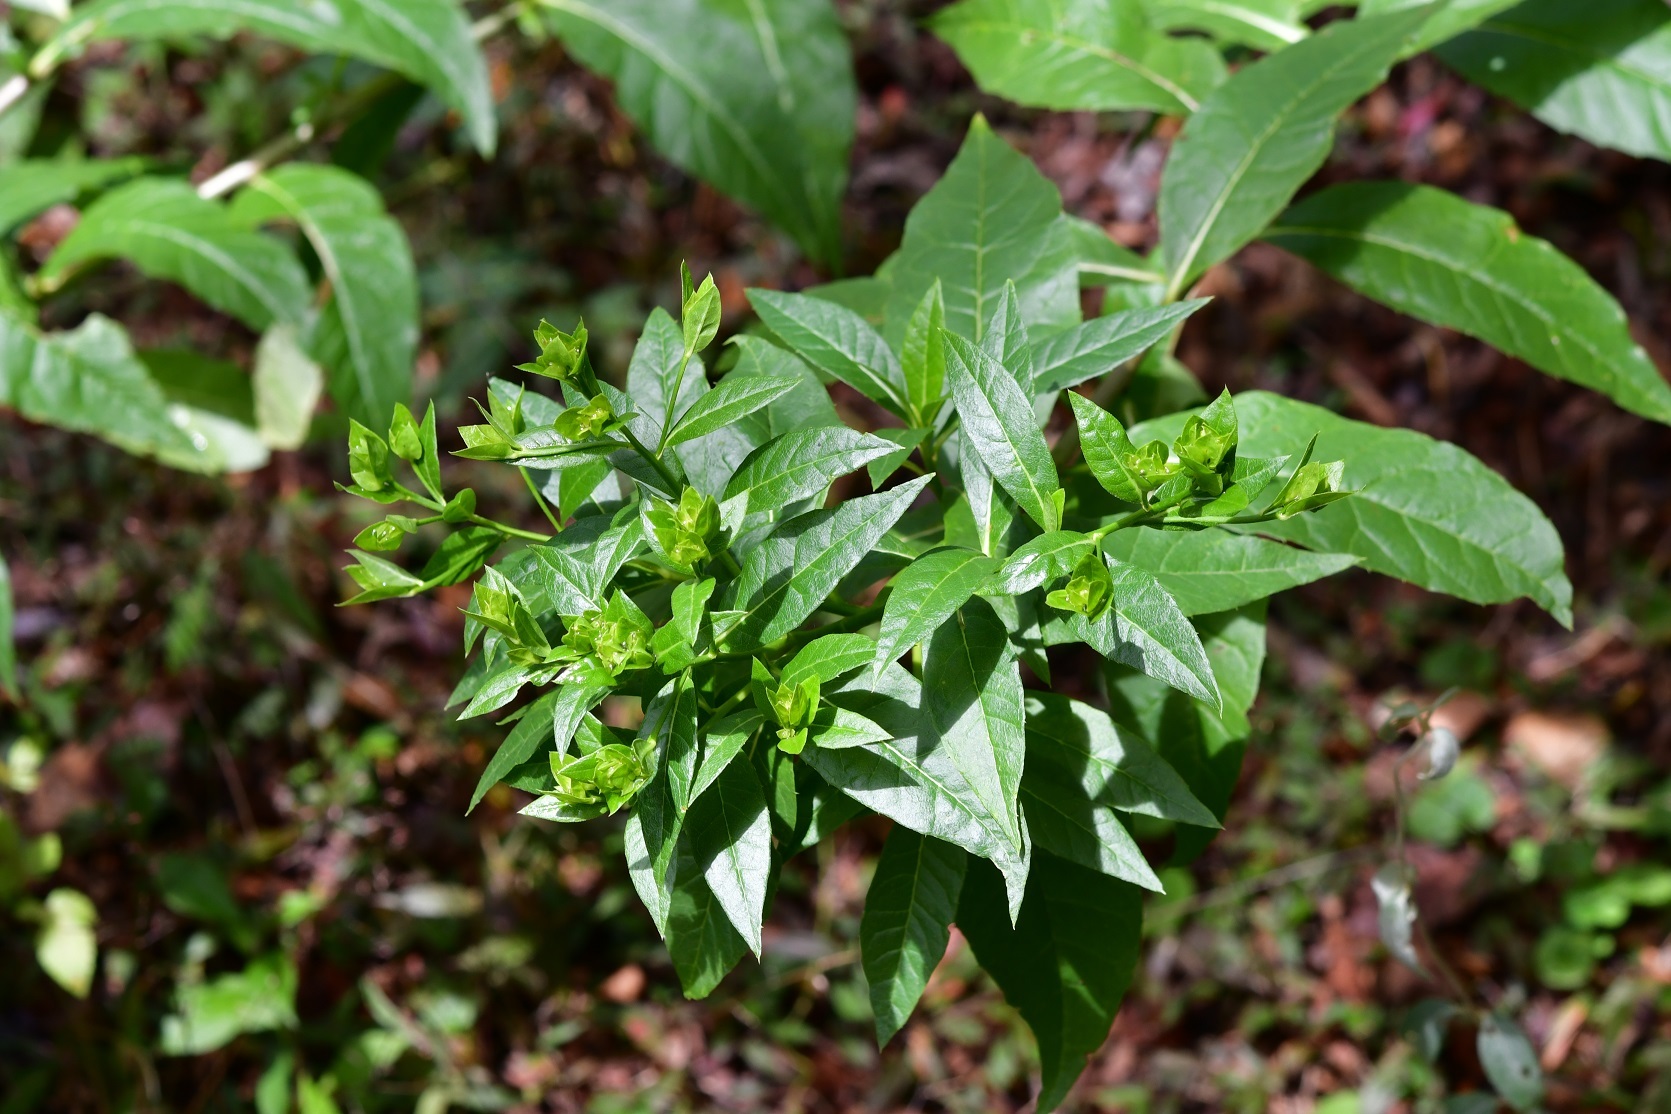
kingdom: Plantae
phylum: Tracheophyta
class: Magnoliopsida
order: Asterales
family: Asteraceae
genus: Trixis
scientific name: Trixis inula
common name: Tropical threefold
